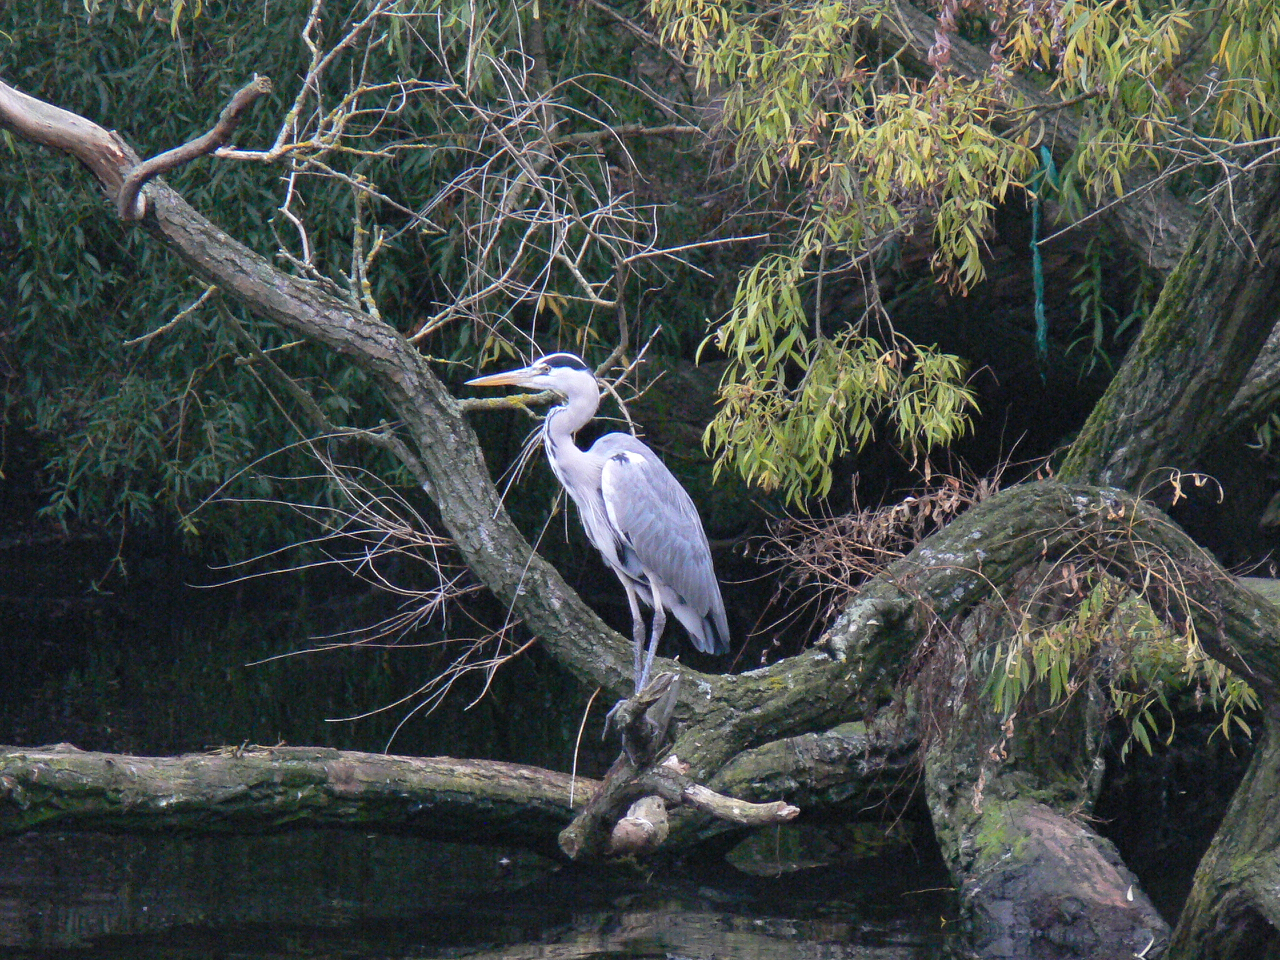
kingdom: Animalia
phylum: Chordata
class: Aves
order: Pelecaniformes
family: Ardeidae
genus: Ardea
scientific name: Ardea cinerea
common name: Grey heron
